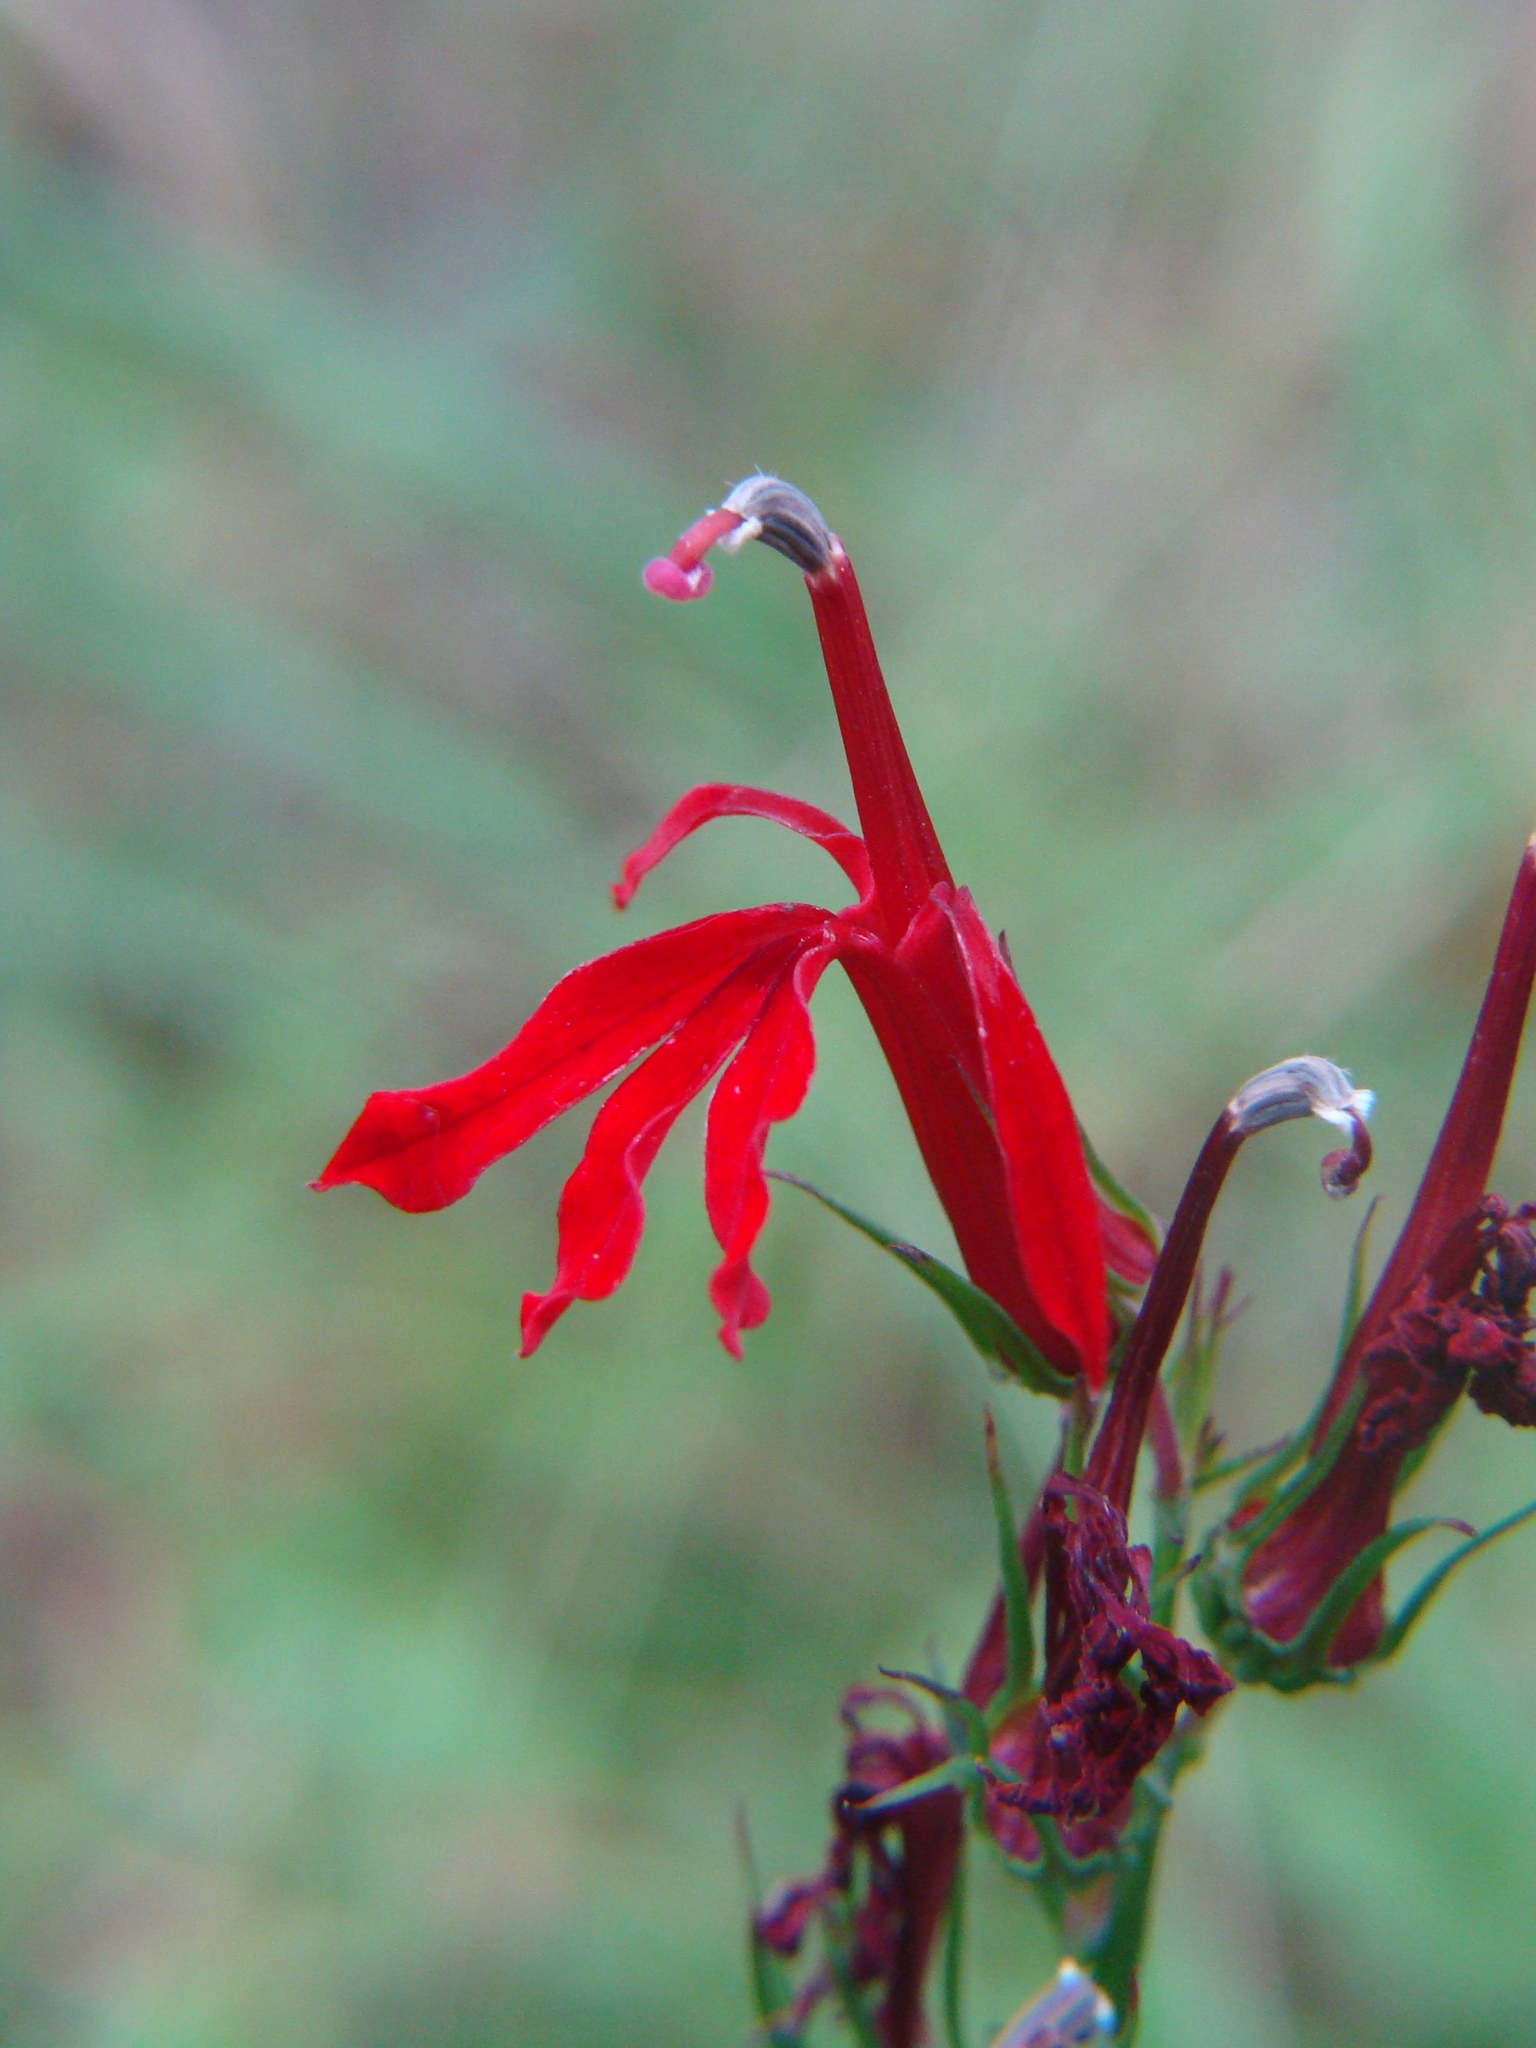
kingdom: Plantae
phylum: Tracheophyta
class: Magnoliopsida
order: Asterales
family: Campanulaceae
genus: Lobelia
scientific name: Lobelia cardinalis
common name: Cardinal flower
